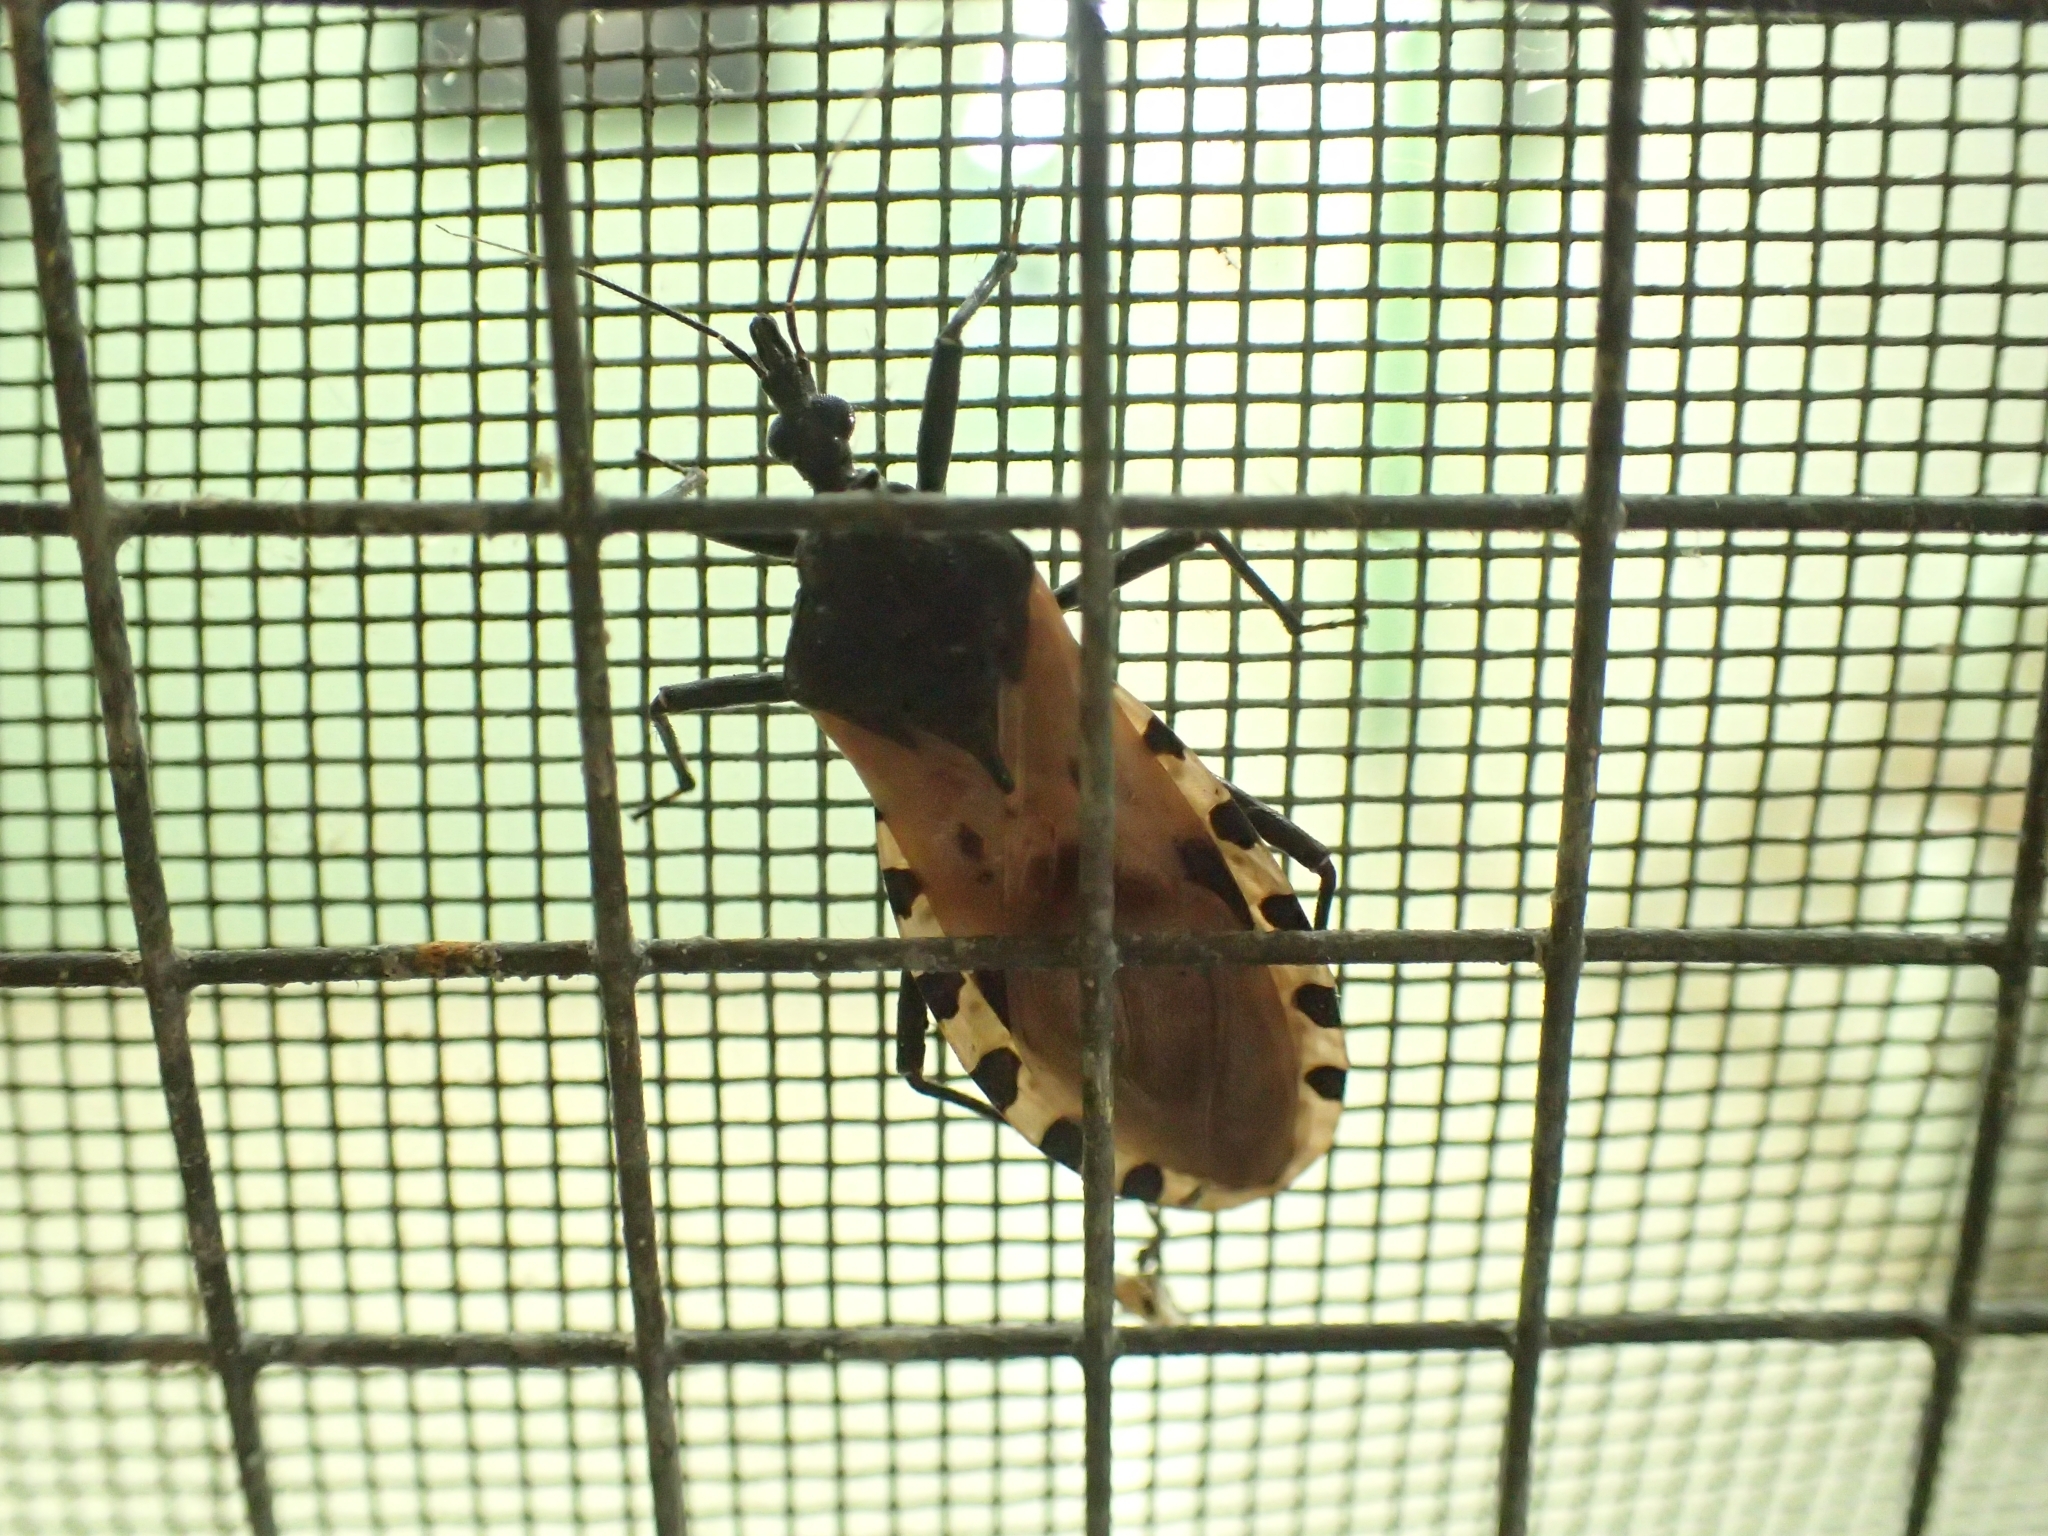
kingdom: Animalia
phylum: Arthropoda
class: Insecta
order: Hemiptera
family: Reduviidae
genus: Meccus
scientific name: Meccus dimidiatus
